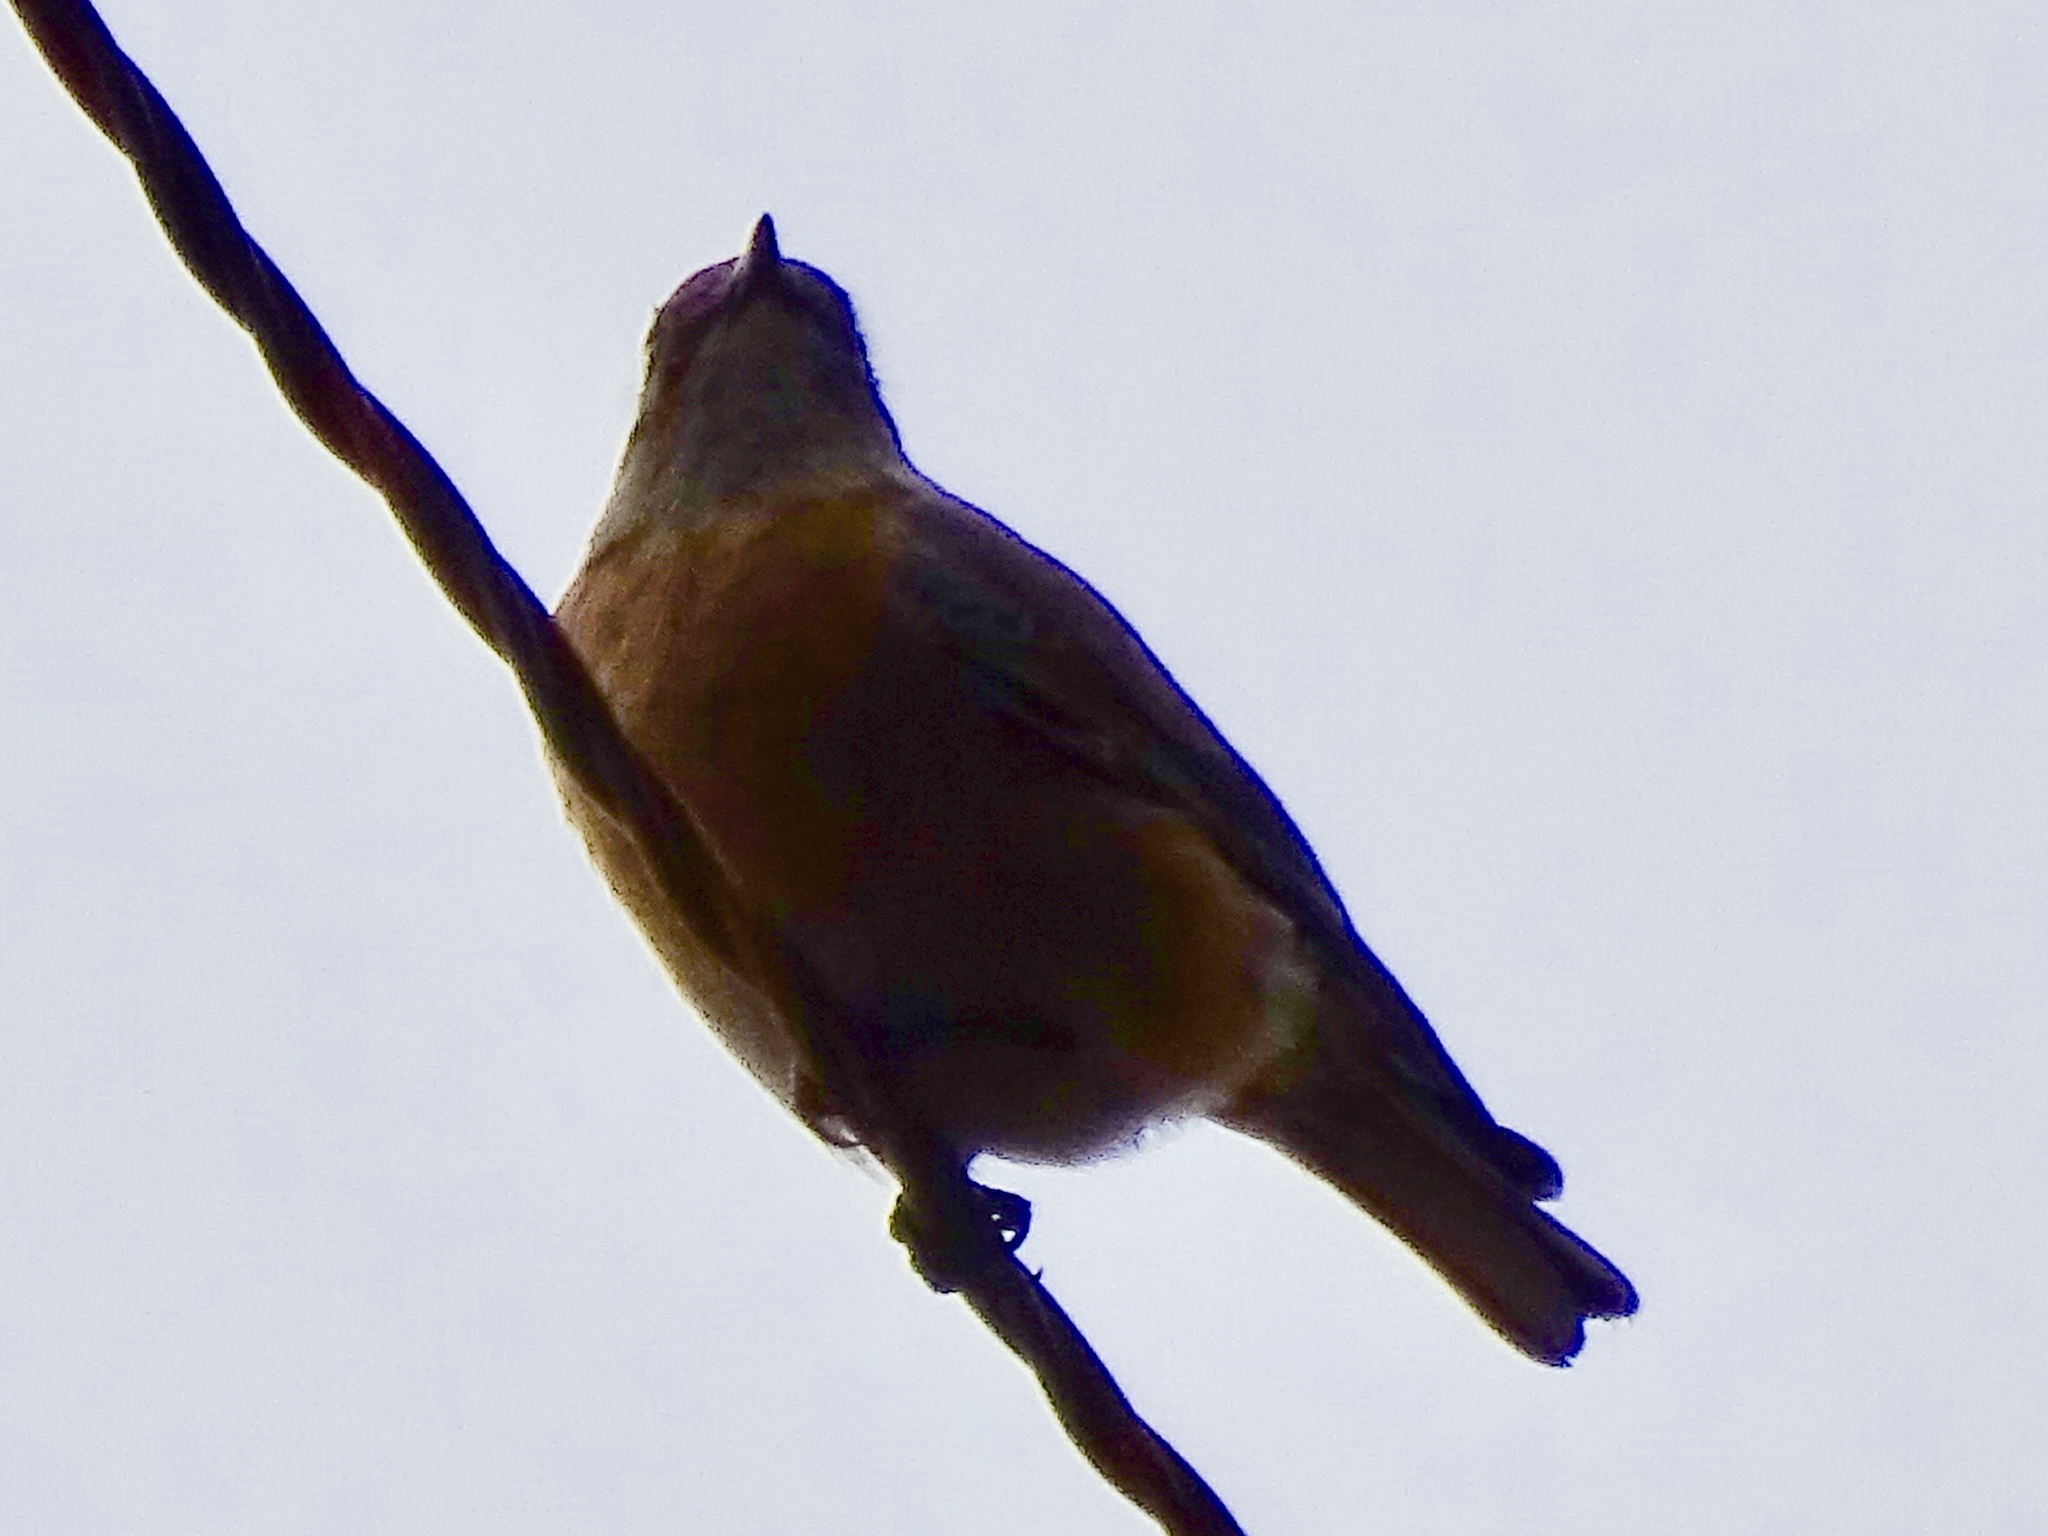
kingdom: Animalia
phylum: Chordata
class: Aves
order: Passeriformes
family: Turdidae
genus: Sialia
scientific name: Sialia mexicana
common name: Western bluebird
